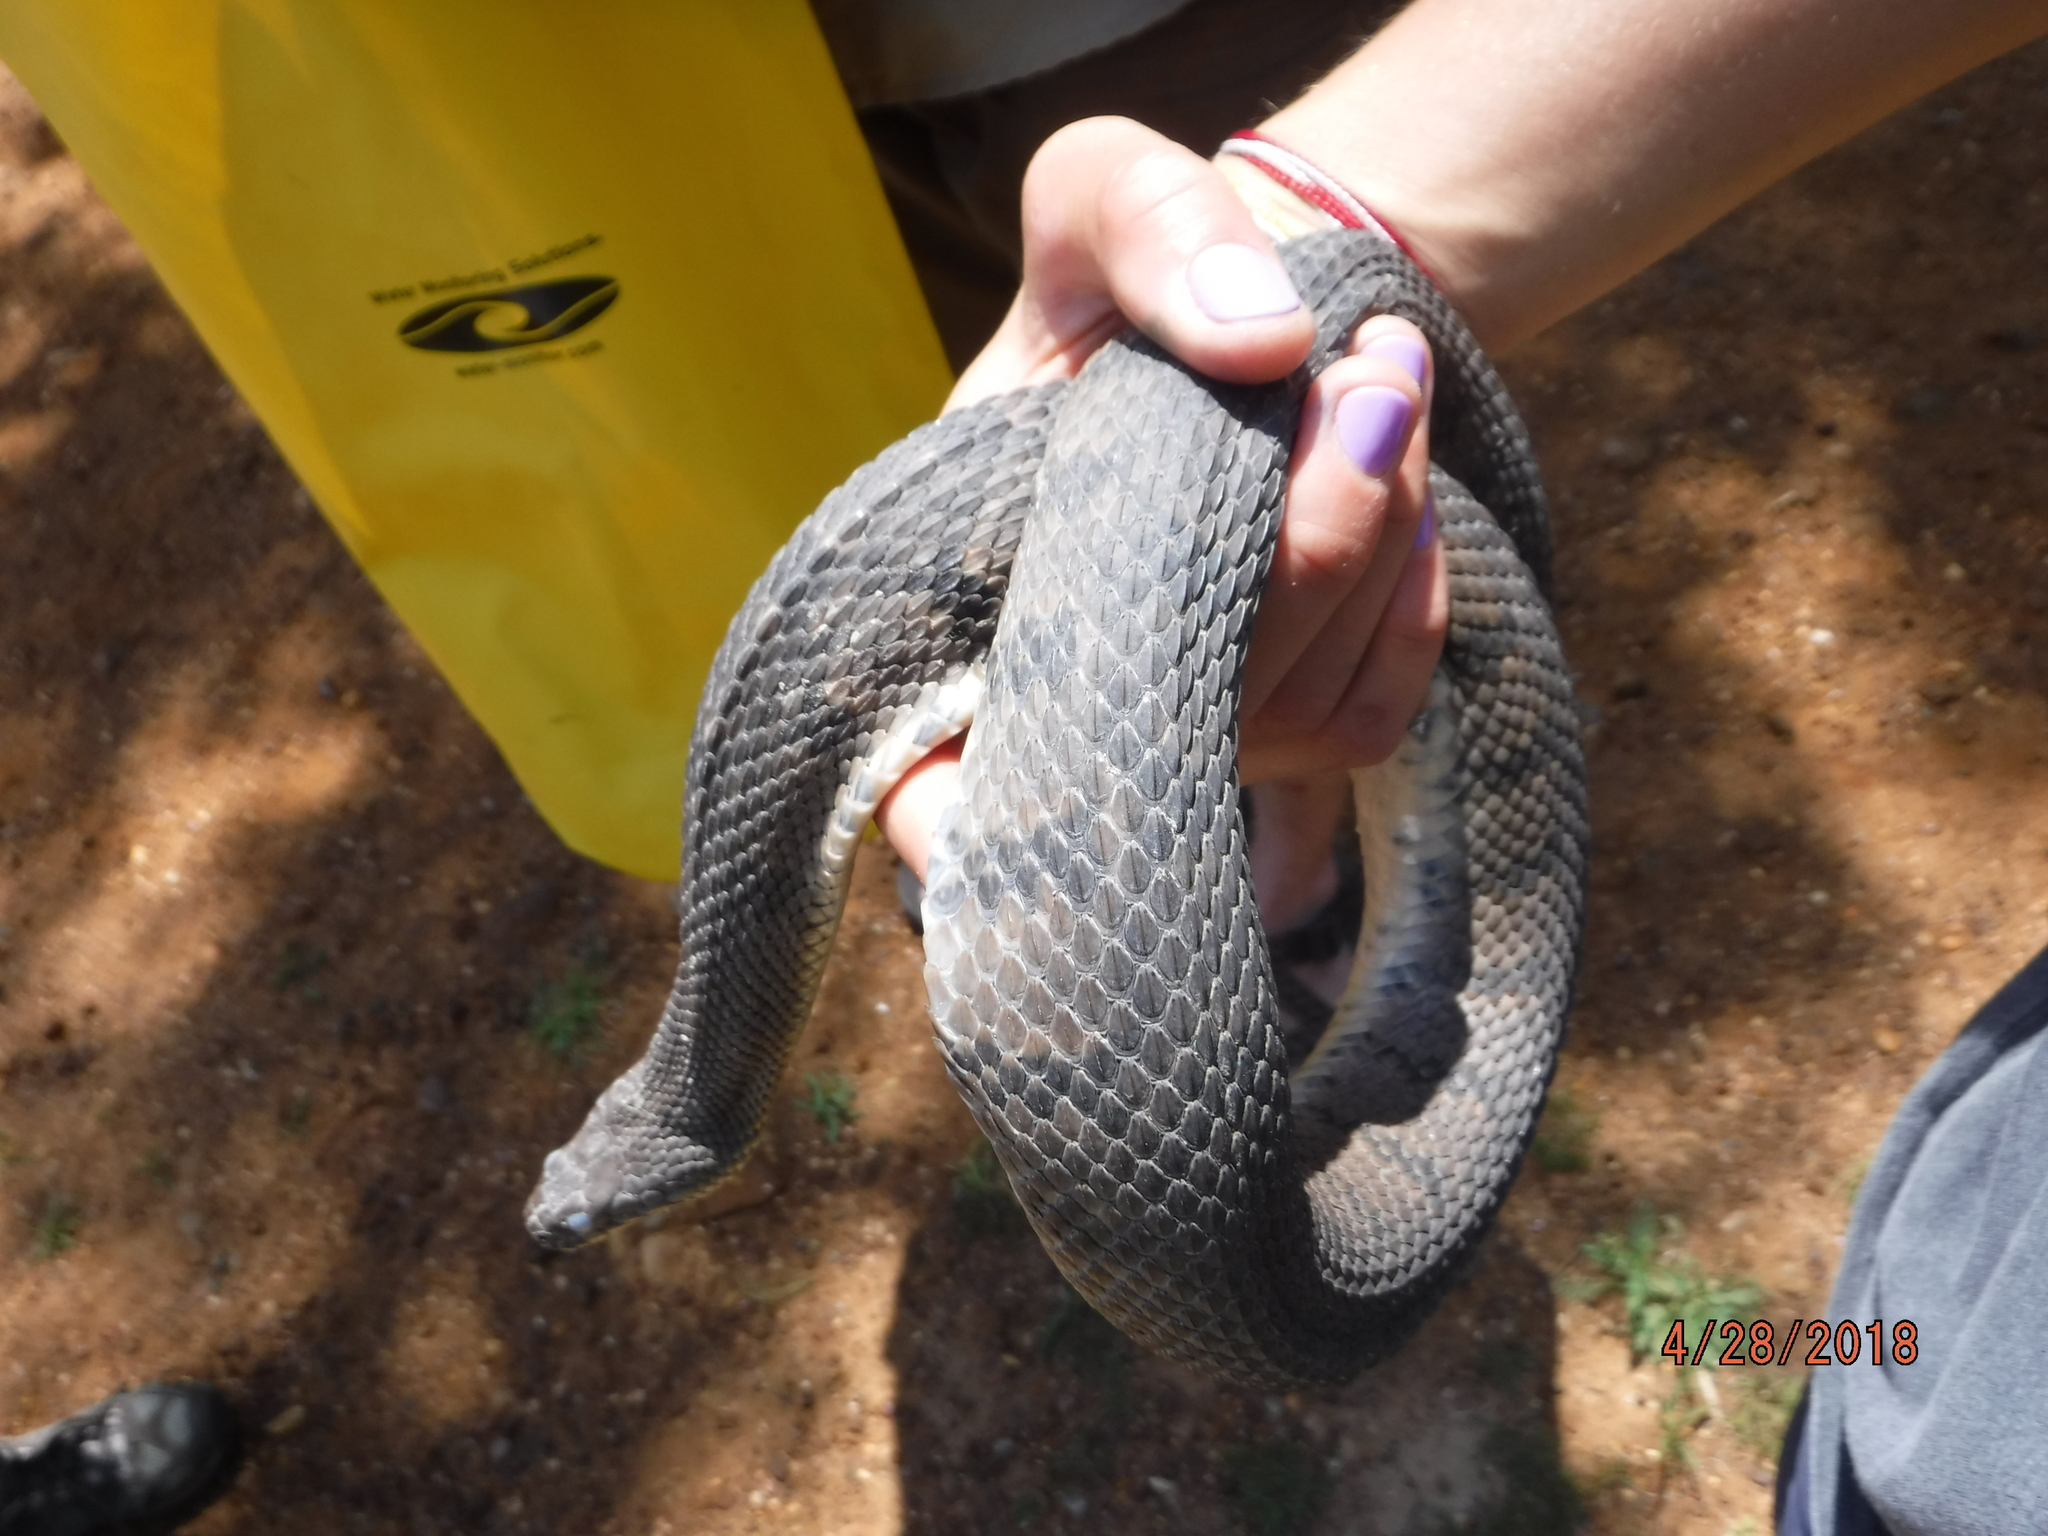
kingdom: Animalia
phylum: Chordata
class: Squamata
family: Colubridae
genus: Nerodia
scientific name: Nerodia rhombifer
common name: Diamondback water snake
